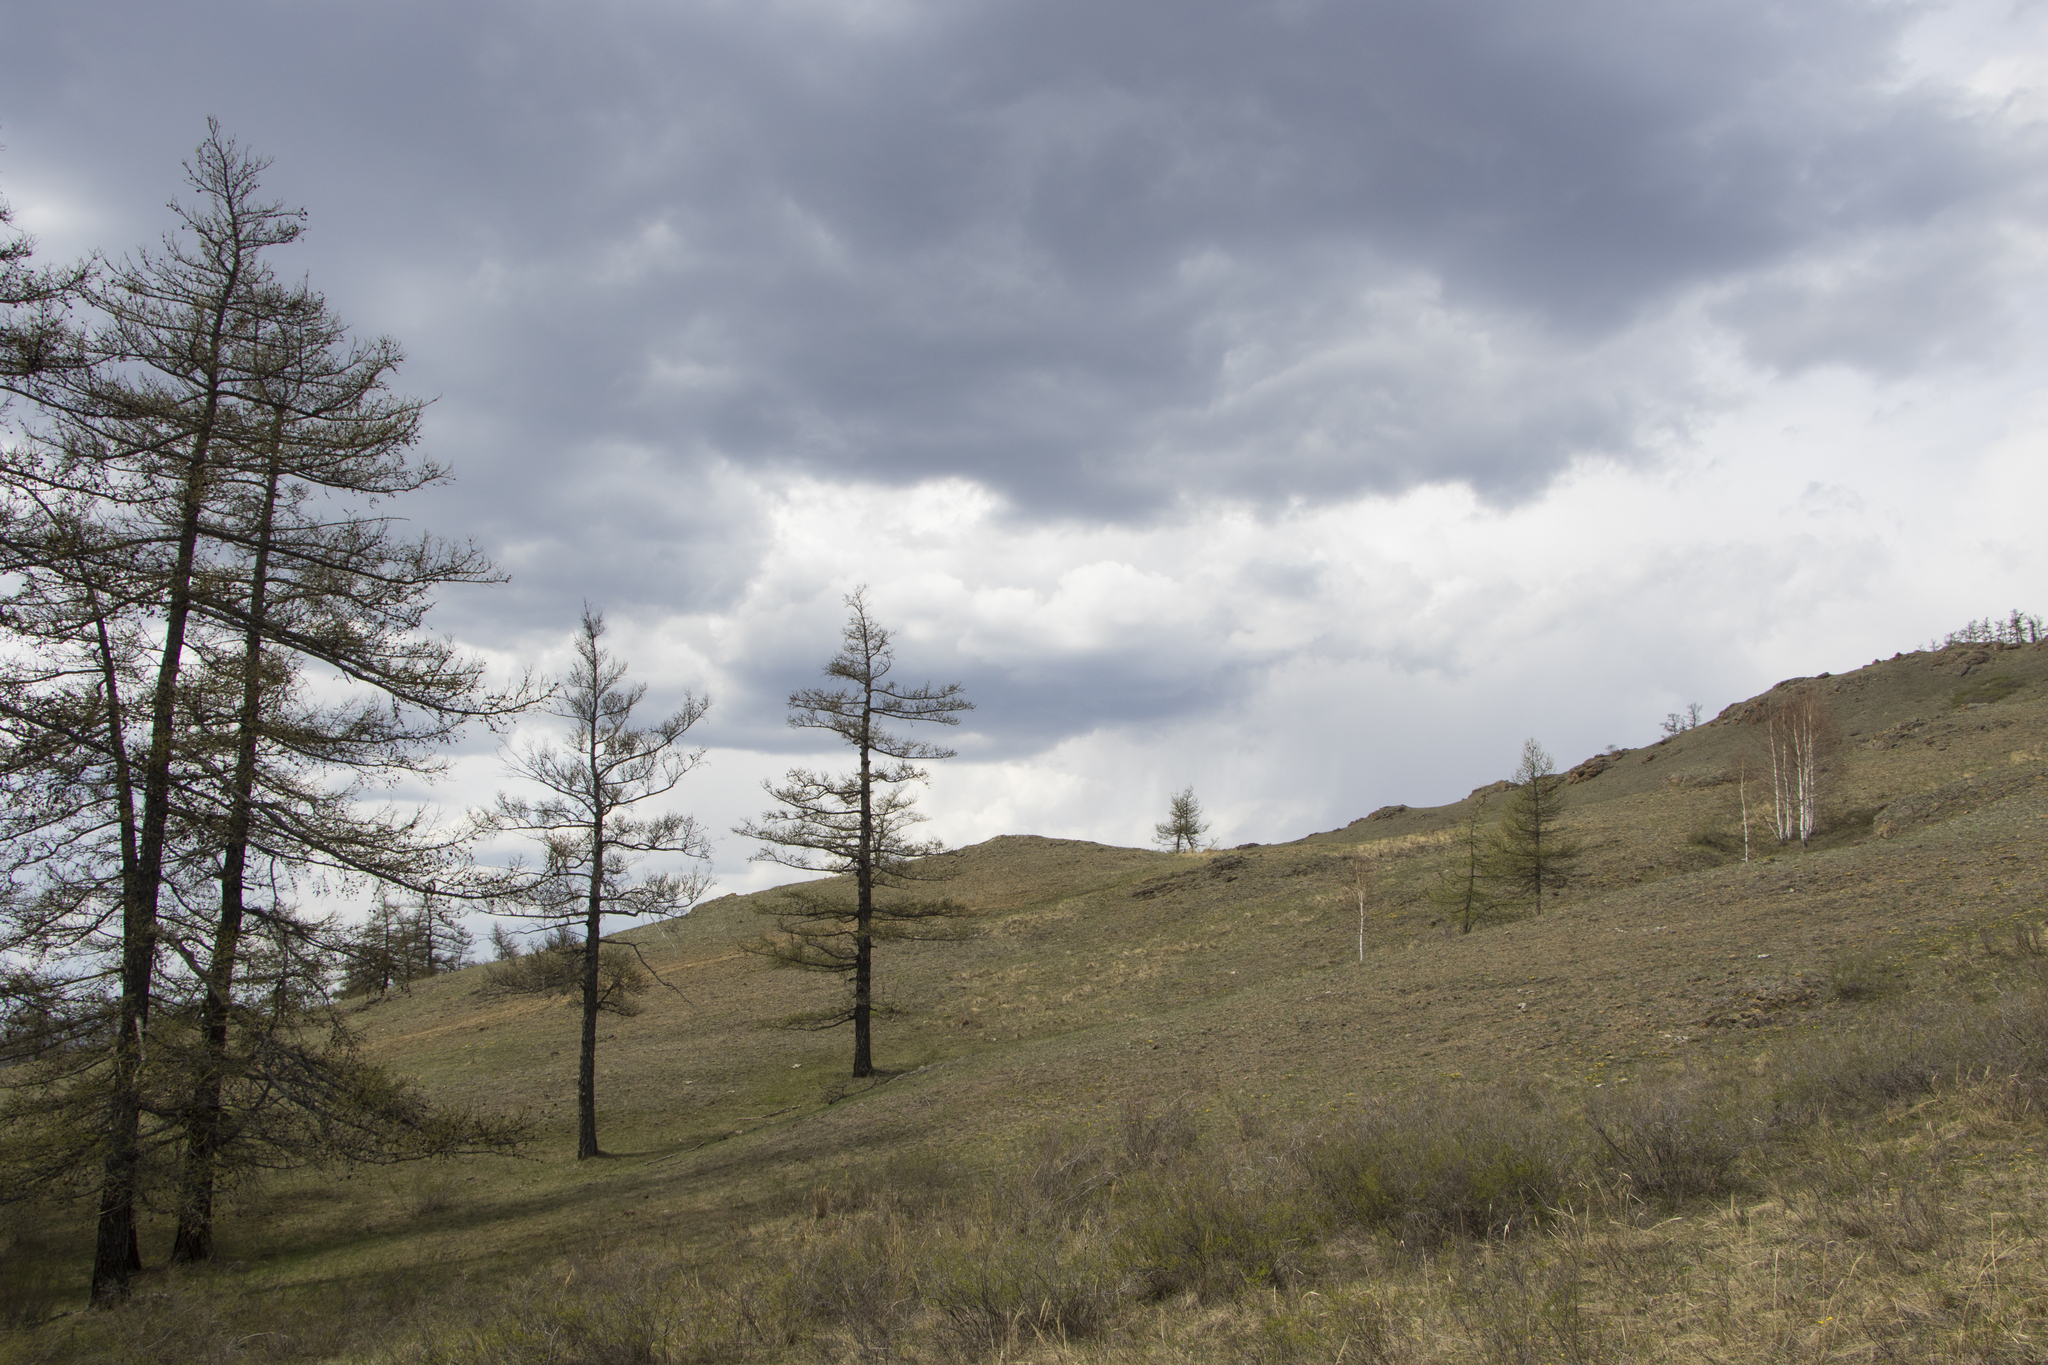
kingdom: Plantae
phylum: Tracheophyta
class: Pinopsida
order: Pinales
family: Pinaceae
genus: Larix
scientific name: Larix sibirica
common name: Siberian larch
